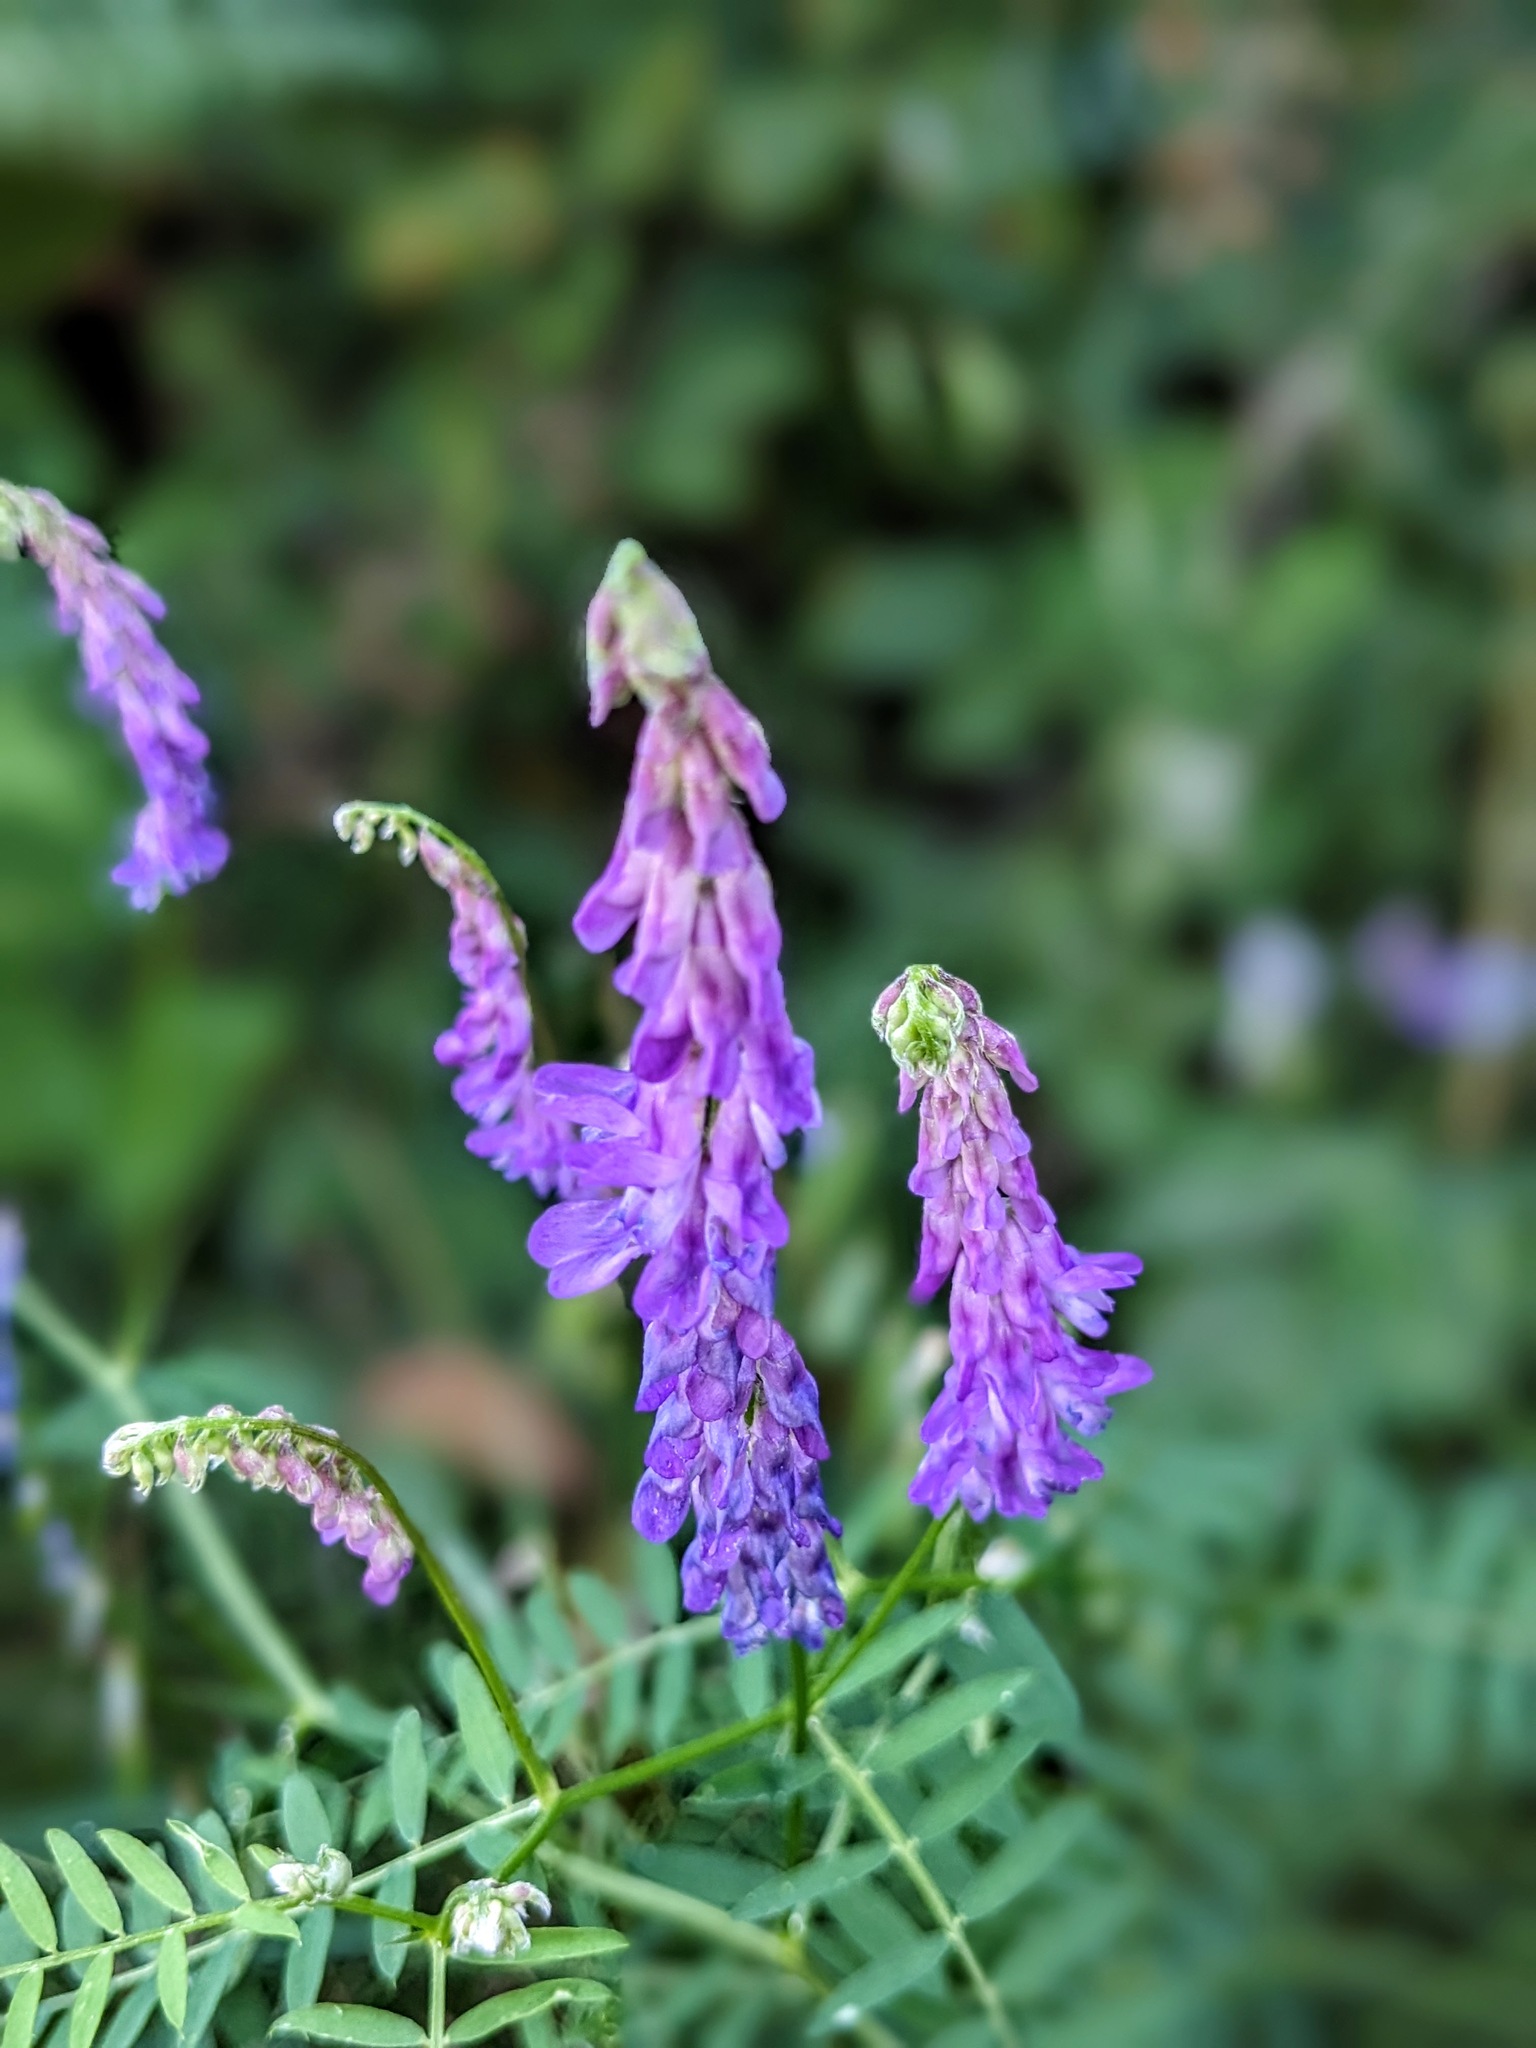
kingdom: Plantae
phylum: Tracheophyta
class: Magnoliopsida
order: Fabales
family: Fabaceae
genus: Vicia
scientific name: Vicia cracca
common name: Bird vetch
